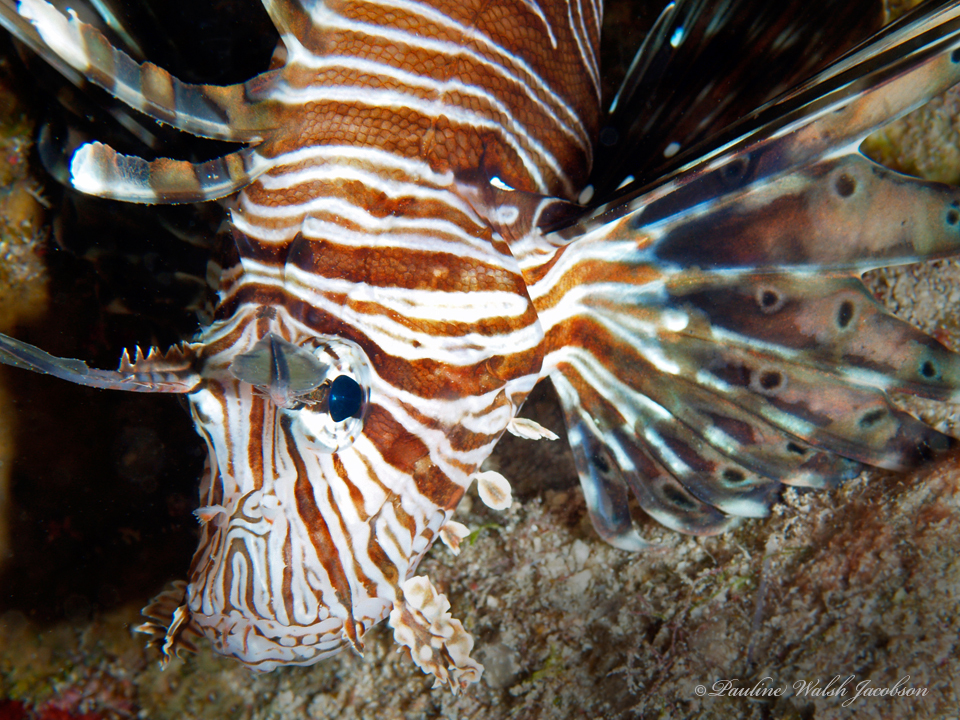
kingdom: Animalia
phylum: Chordata
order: Scorpaeniformes
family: Scorpaenidae
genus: Pterois
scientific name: Pterois miles
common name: Devil firefish
